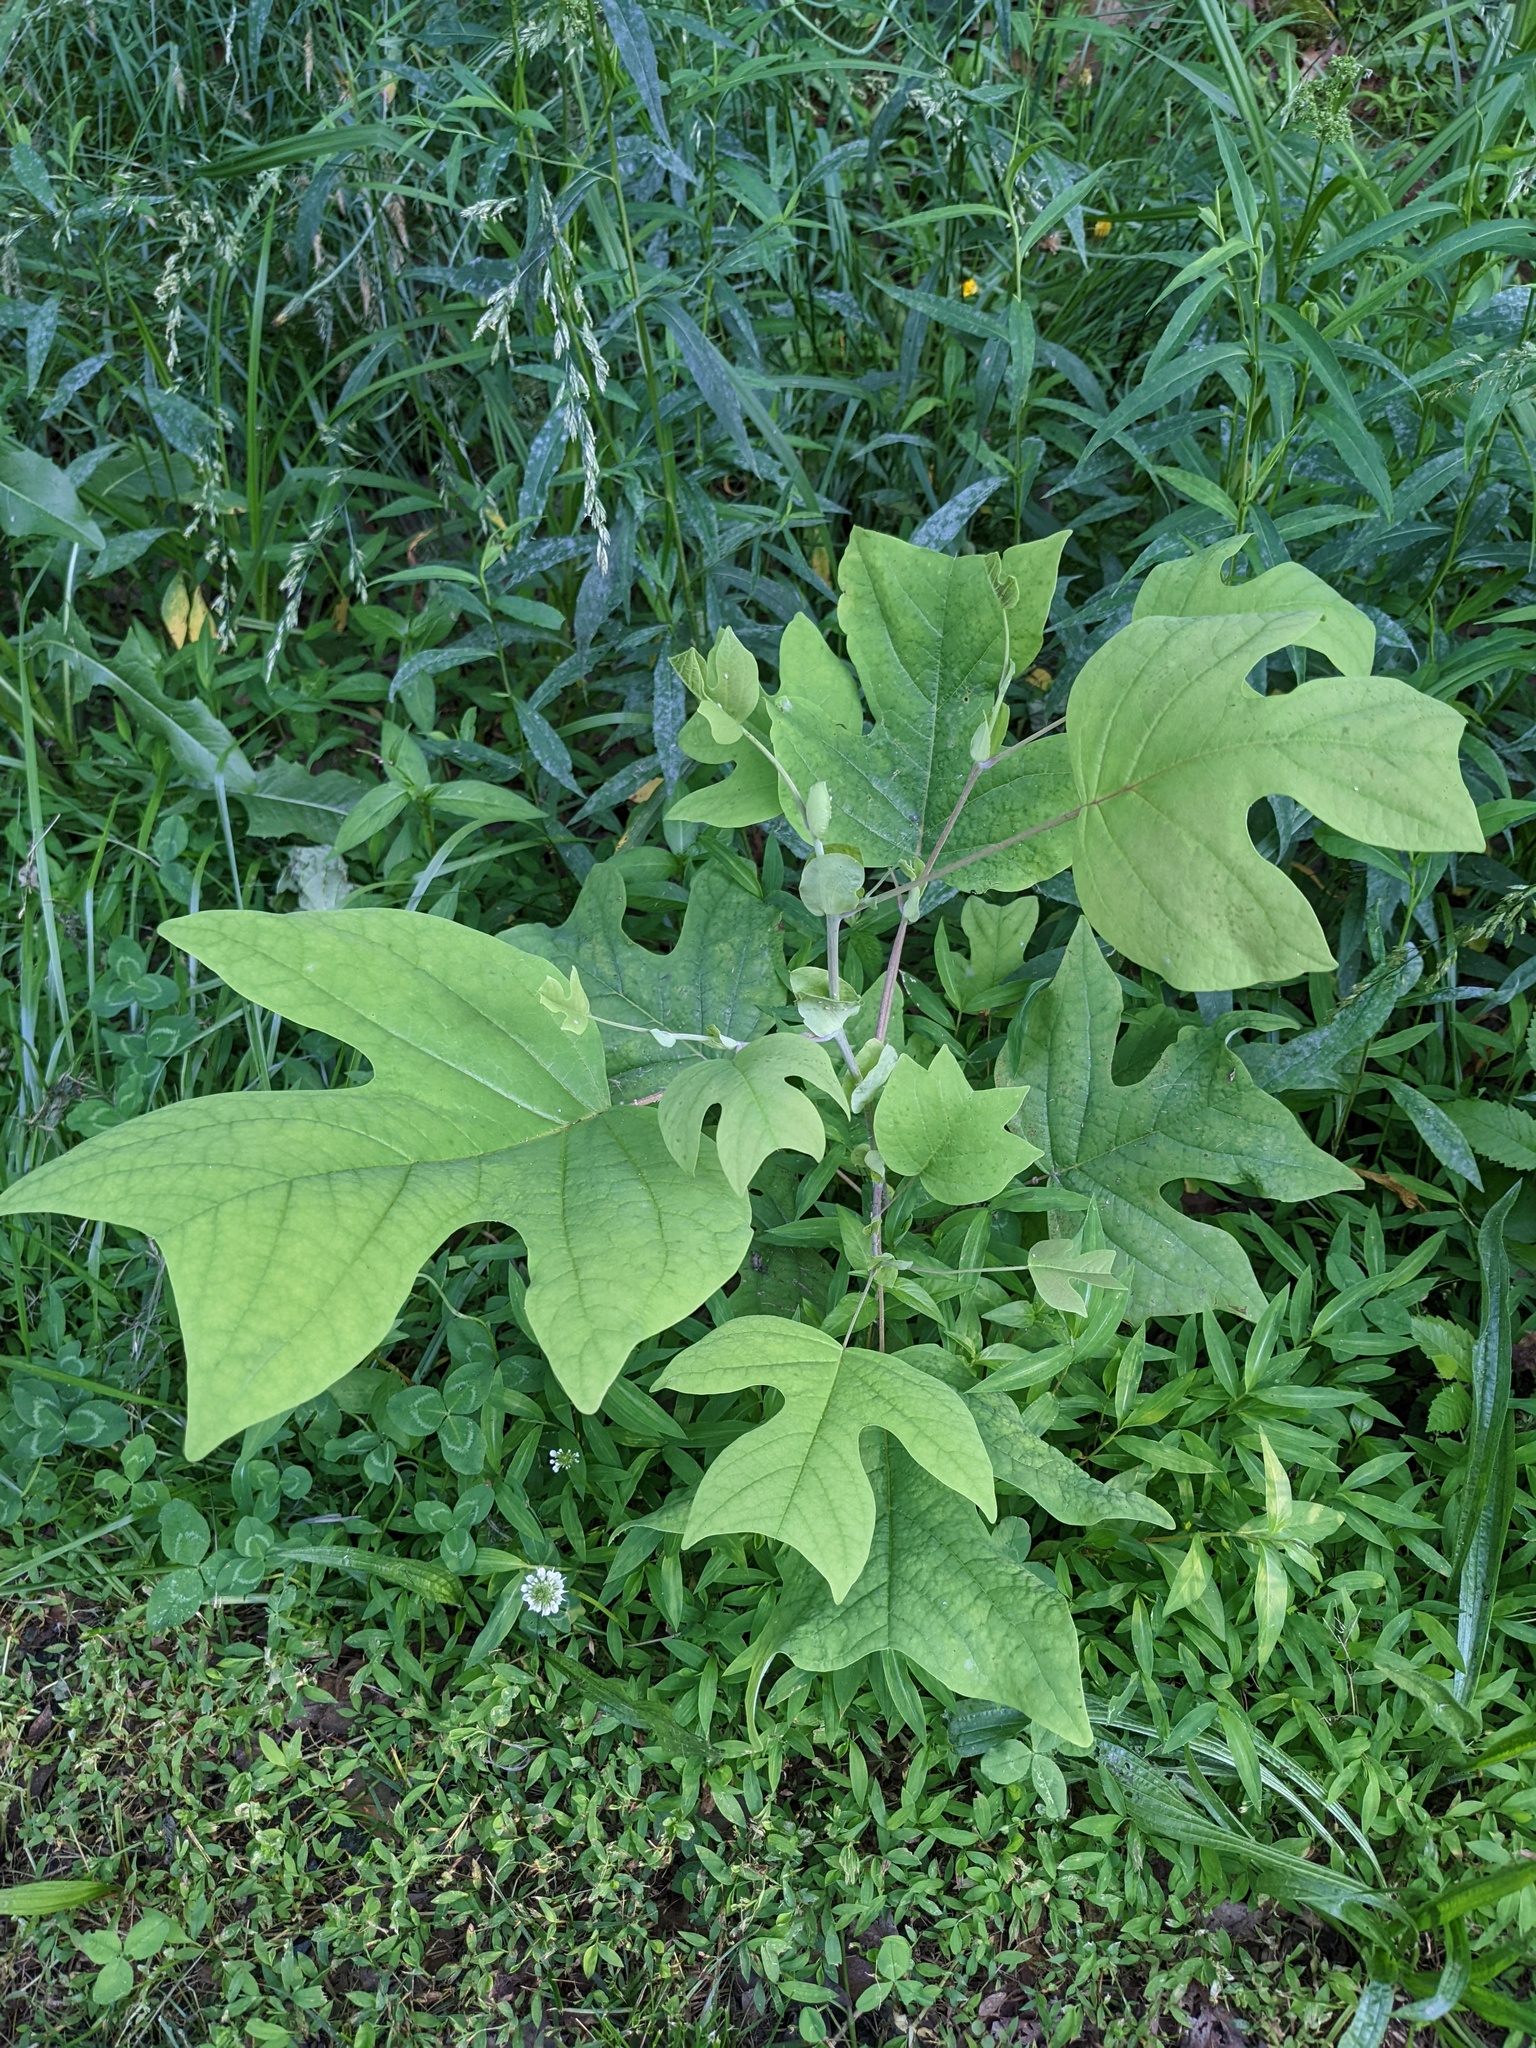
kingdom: Plantae
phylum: Tracheophyta
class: Magnoliopsida
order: Magnoliales
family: Magnoliaceae
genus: Liriodendron
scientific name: Liriodendron tulipifera
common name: Tulip tree
